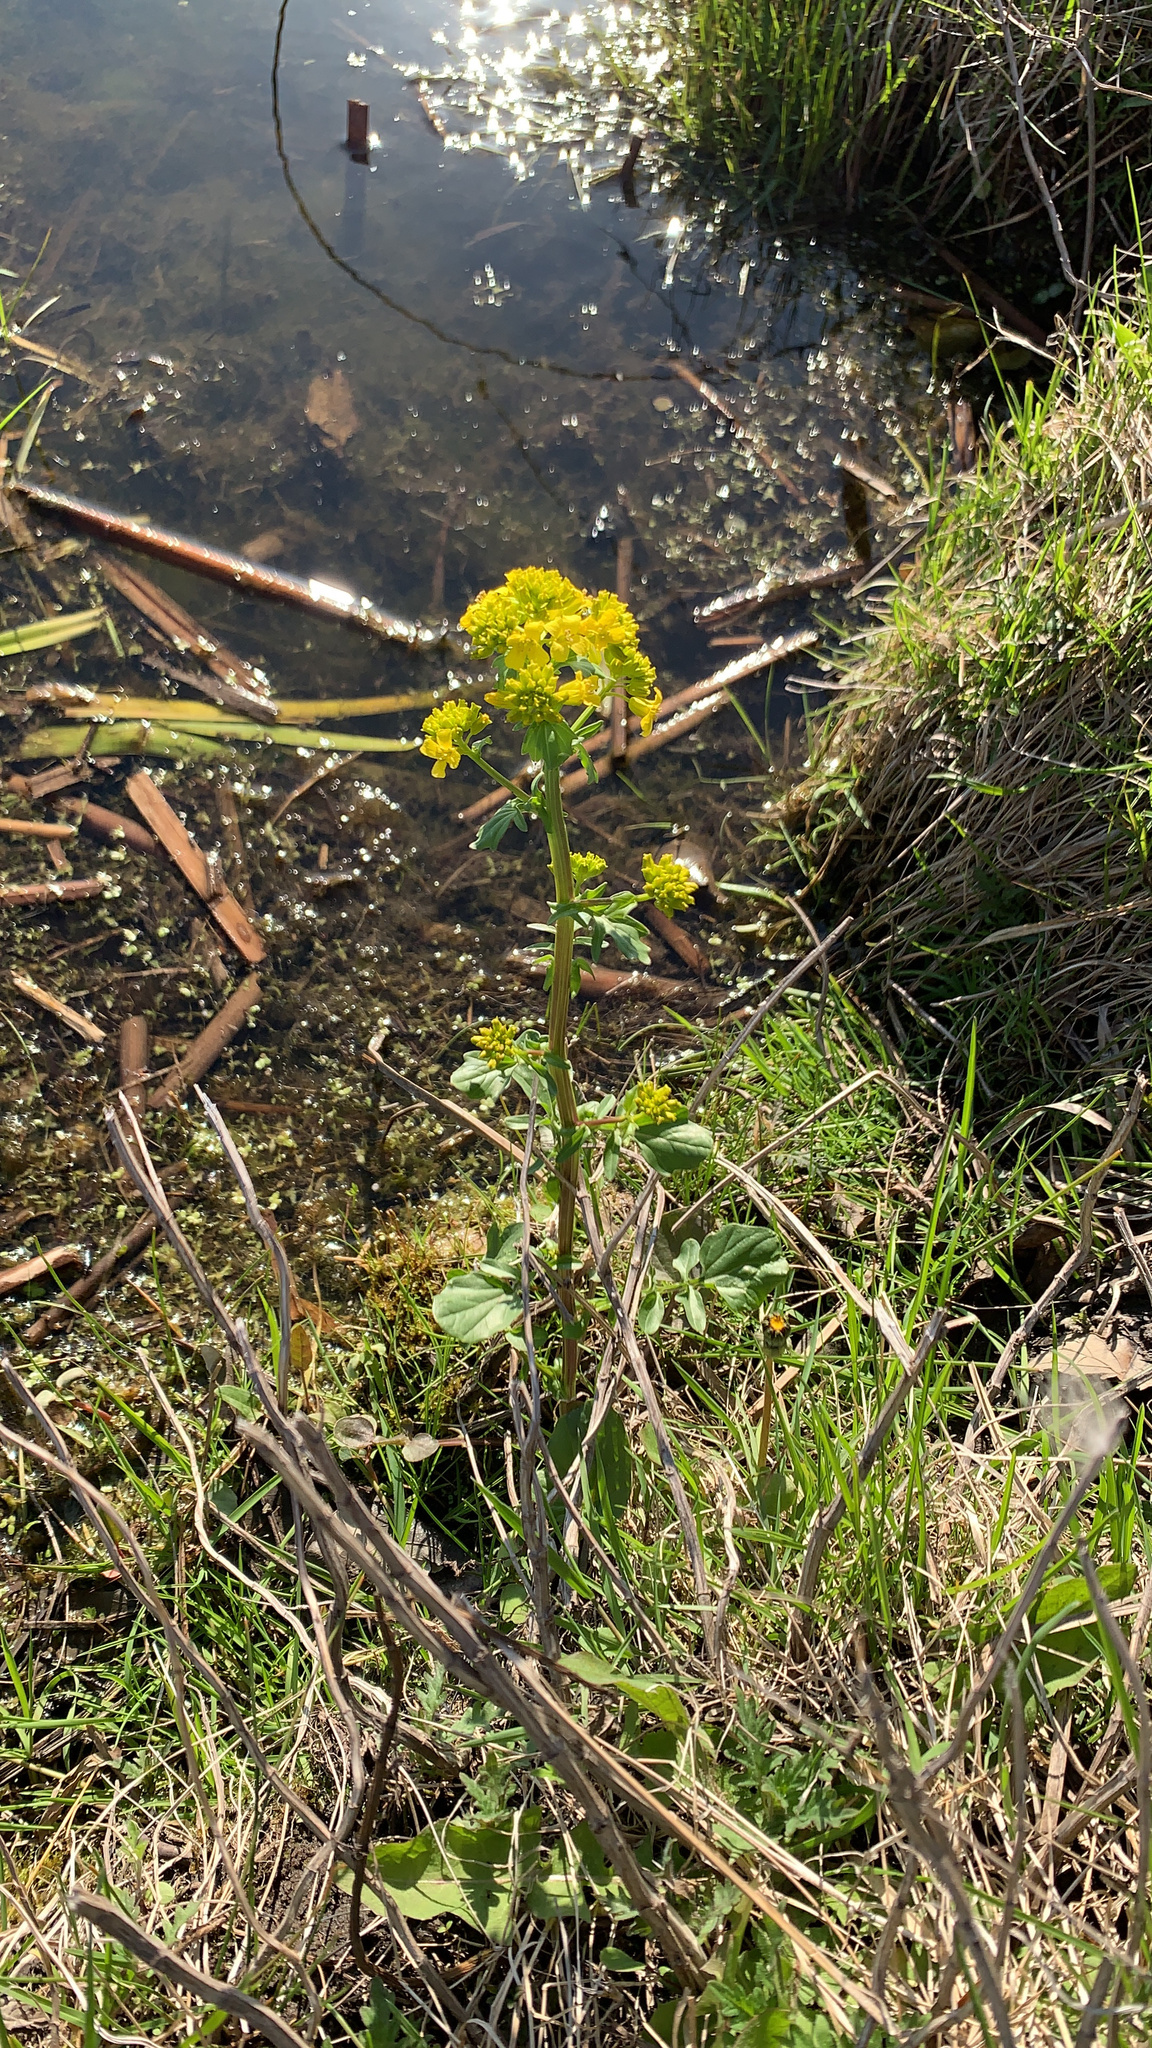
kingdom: Plantae
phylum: Tracheophyta
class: Magnoliopsida
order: Brassicales
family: Brassicaceae
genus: Barbarea
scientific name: Barbarea vulgaris
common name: Cressy-greens
